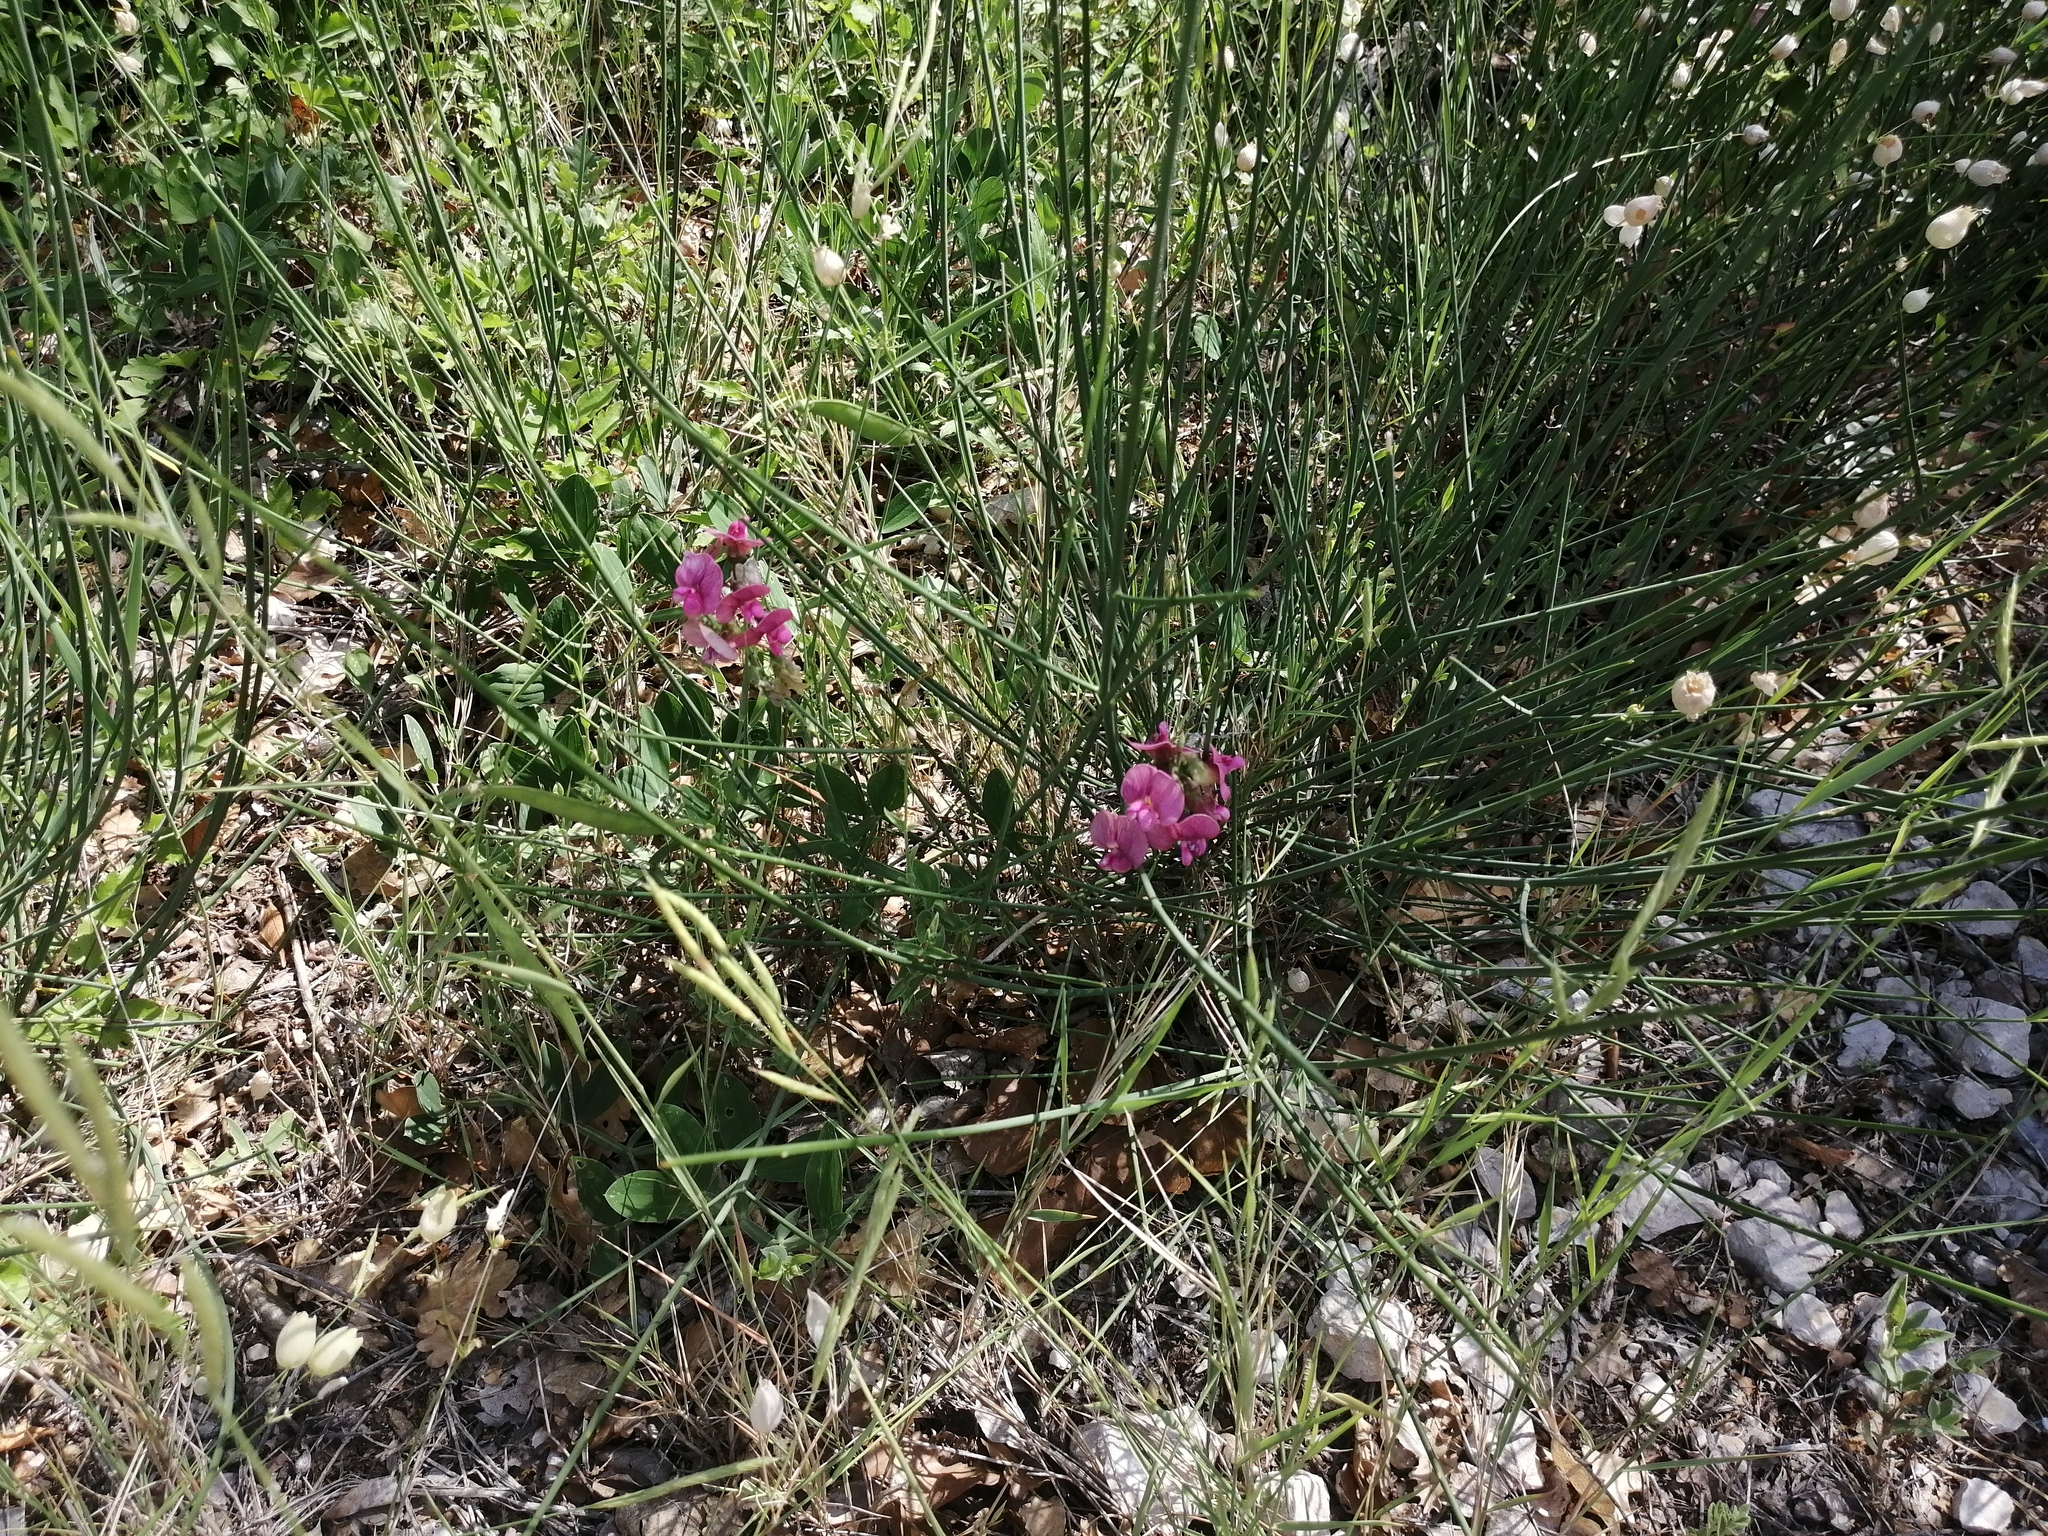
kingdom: Plantae
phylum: Tracheophyta
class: Magnoliopsida
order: Fabales
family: Fabaceae
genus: Lathyrus
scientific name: Lathyrus latifolius
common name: Perennial pea
